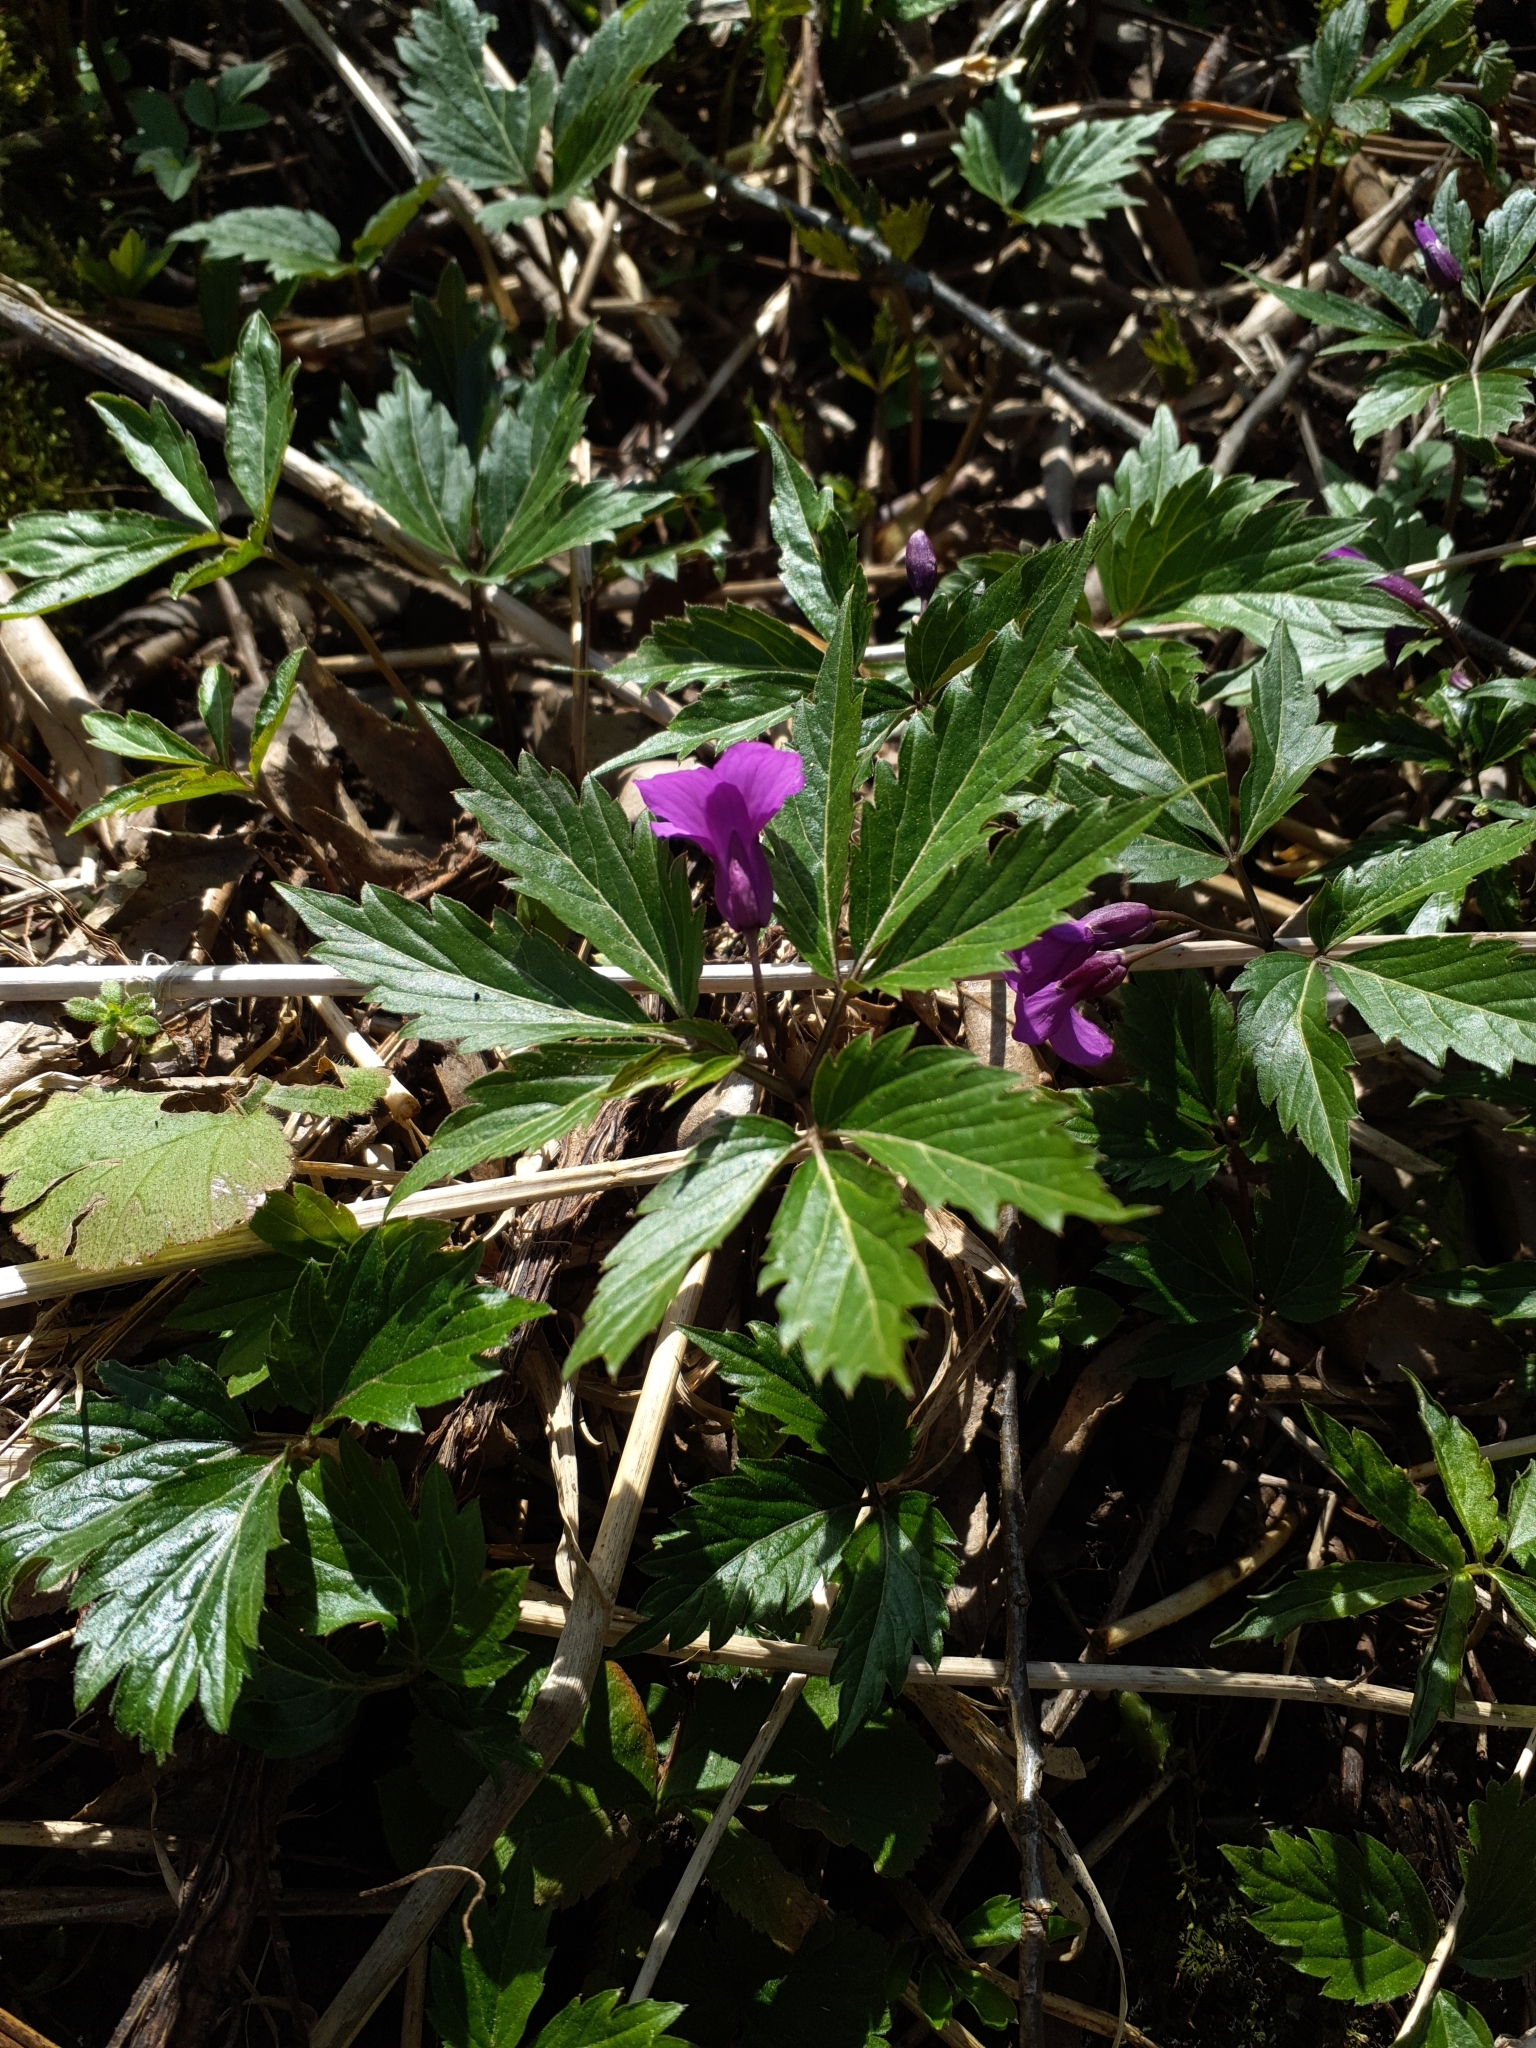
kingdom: Plantae
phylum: Tracheophyta
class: Magnoliopsida
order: Brassicales
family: Brassicaceae
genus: Cardamine
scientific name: Cardamine glanduligera
